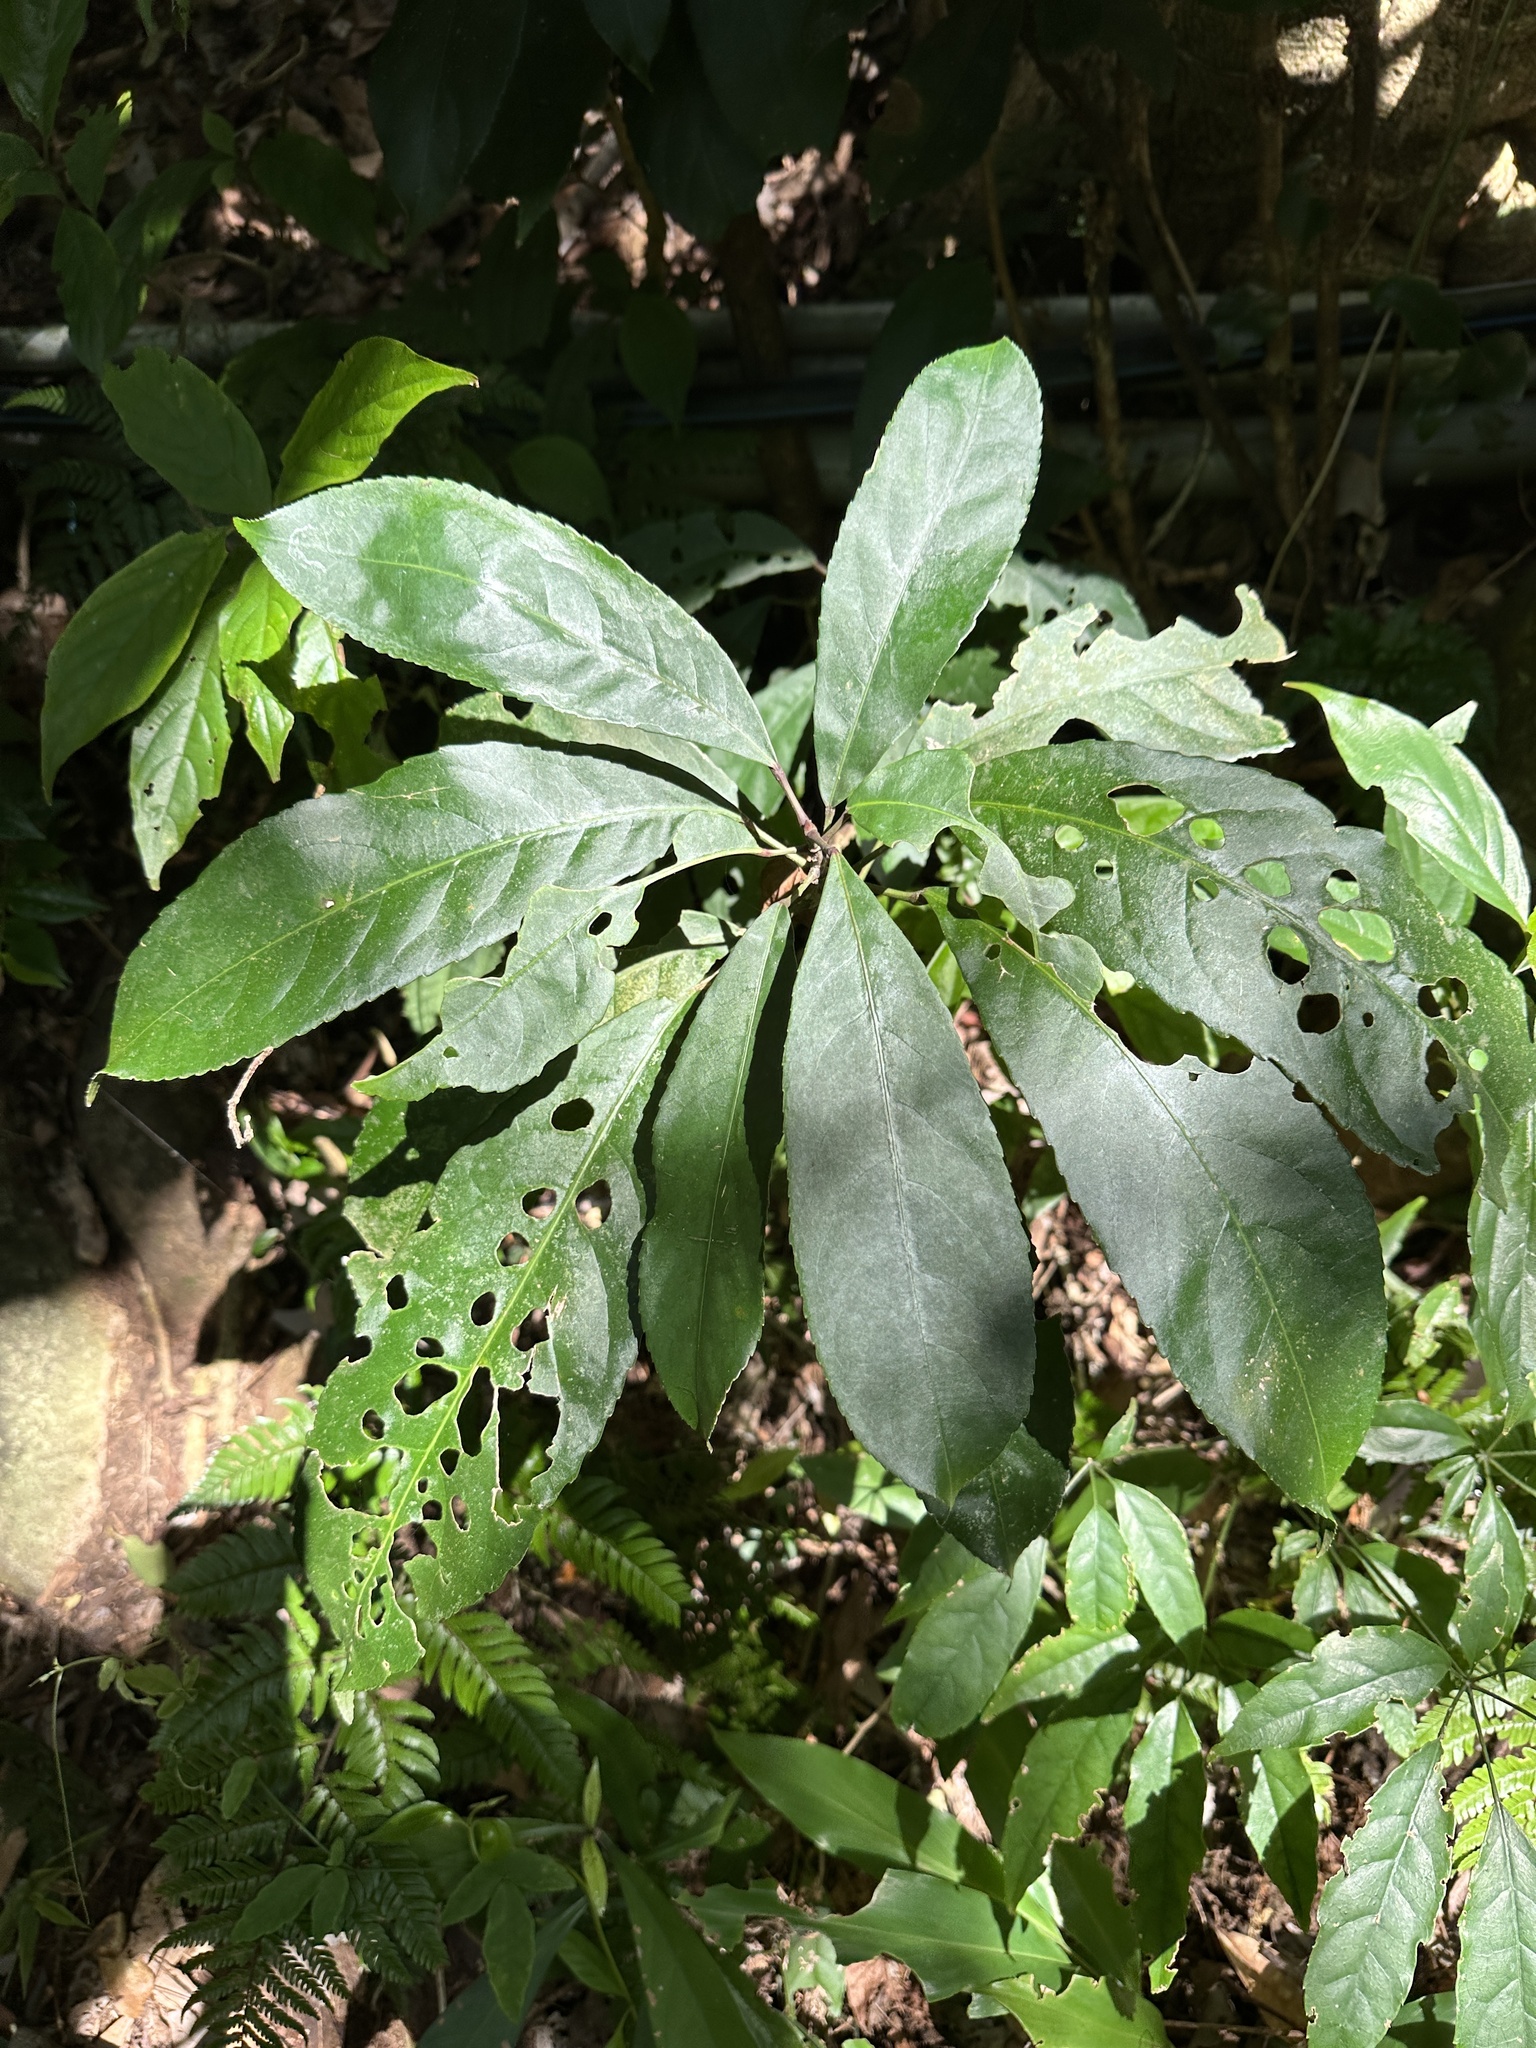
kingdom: Plantae
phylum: Tracheophyta
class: Magnoliopsida
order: Crossosomatales
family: Staphyleaceae
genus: Turpinia
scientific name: Turpinia formosana
